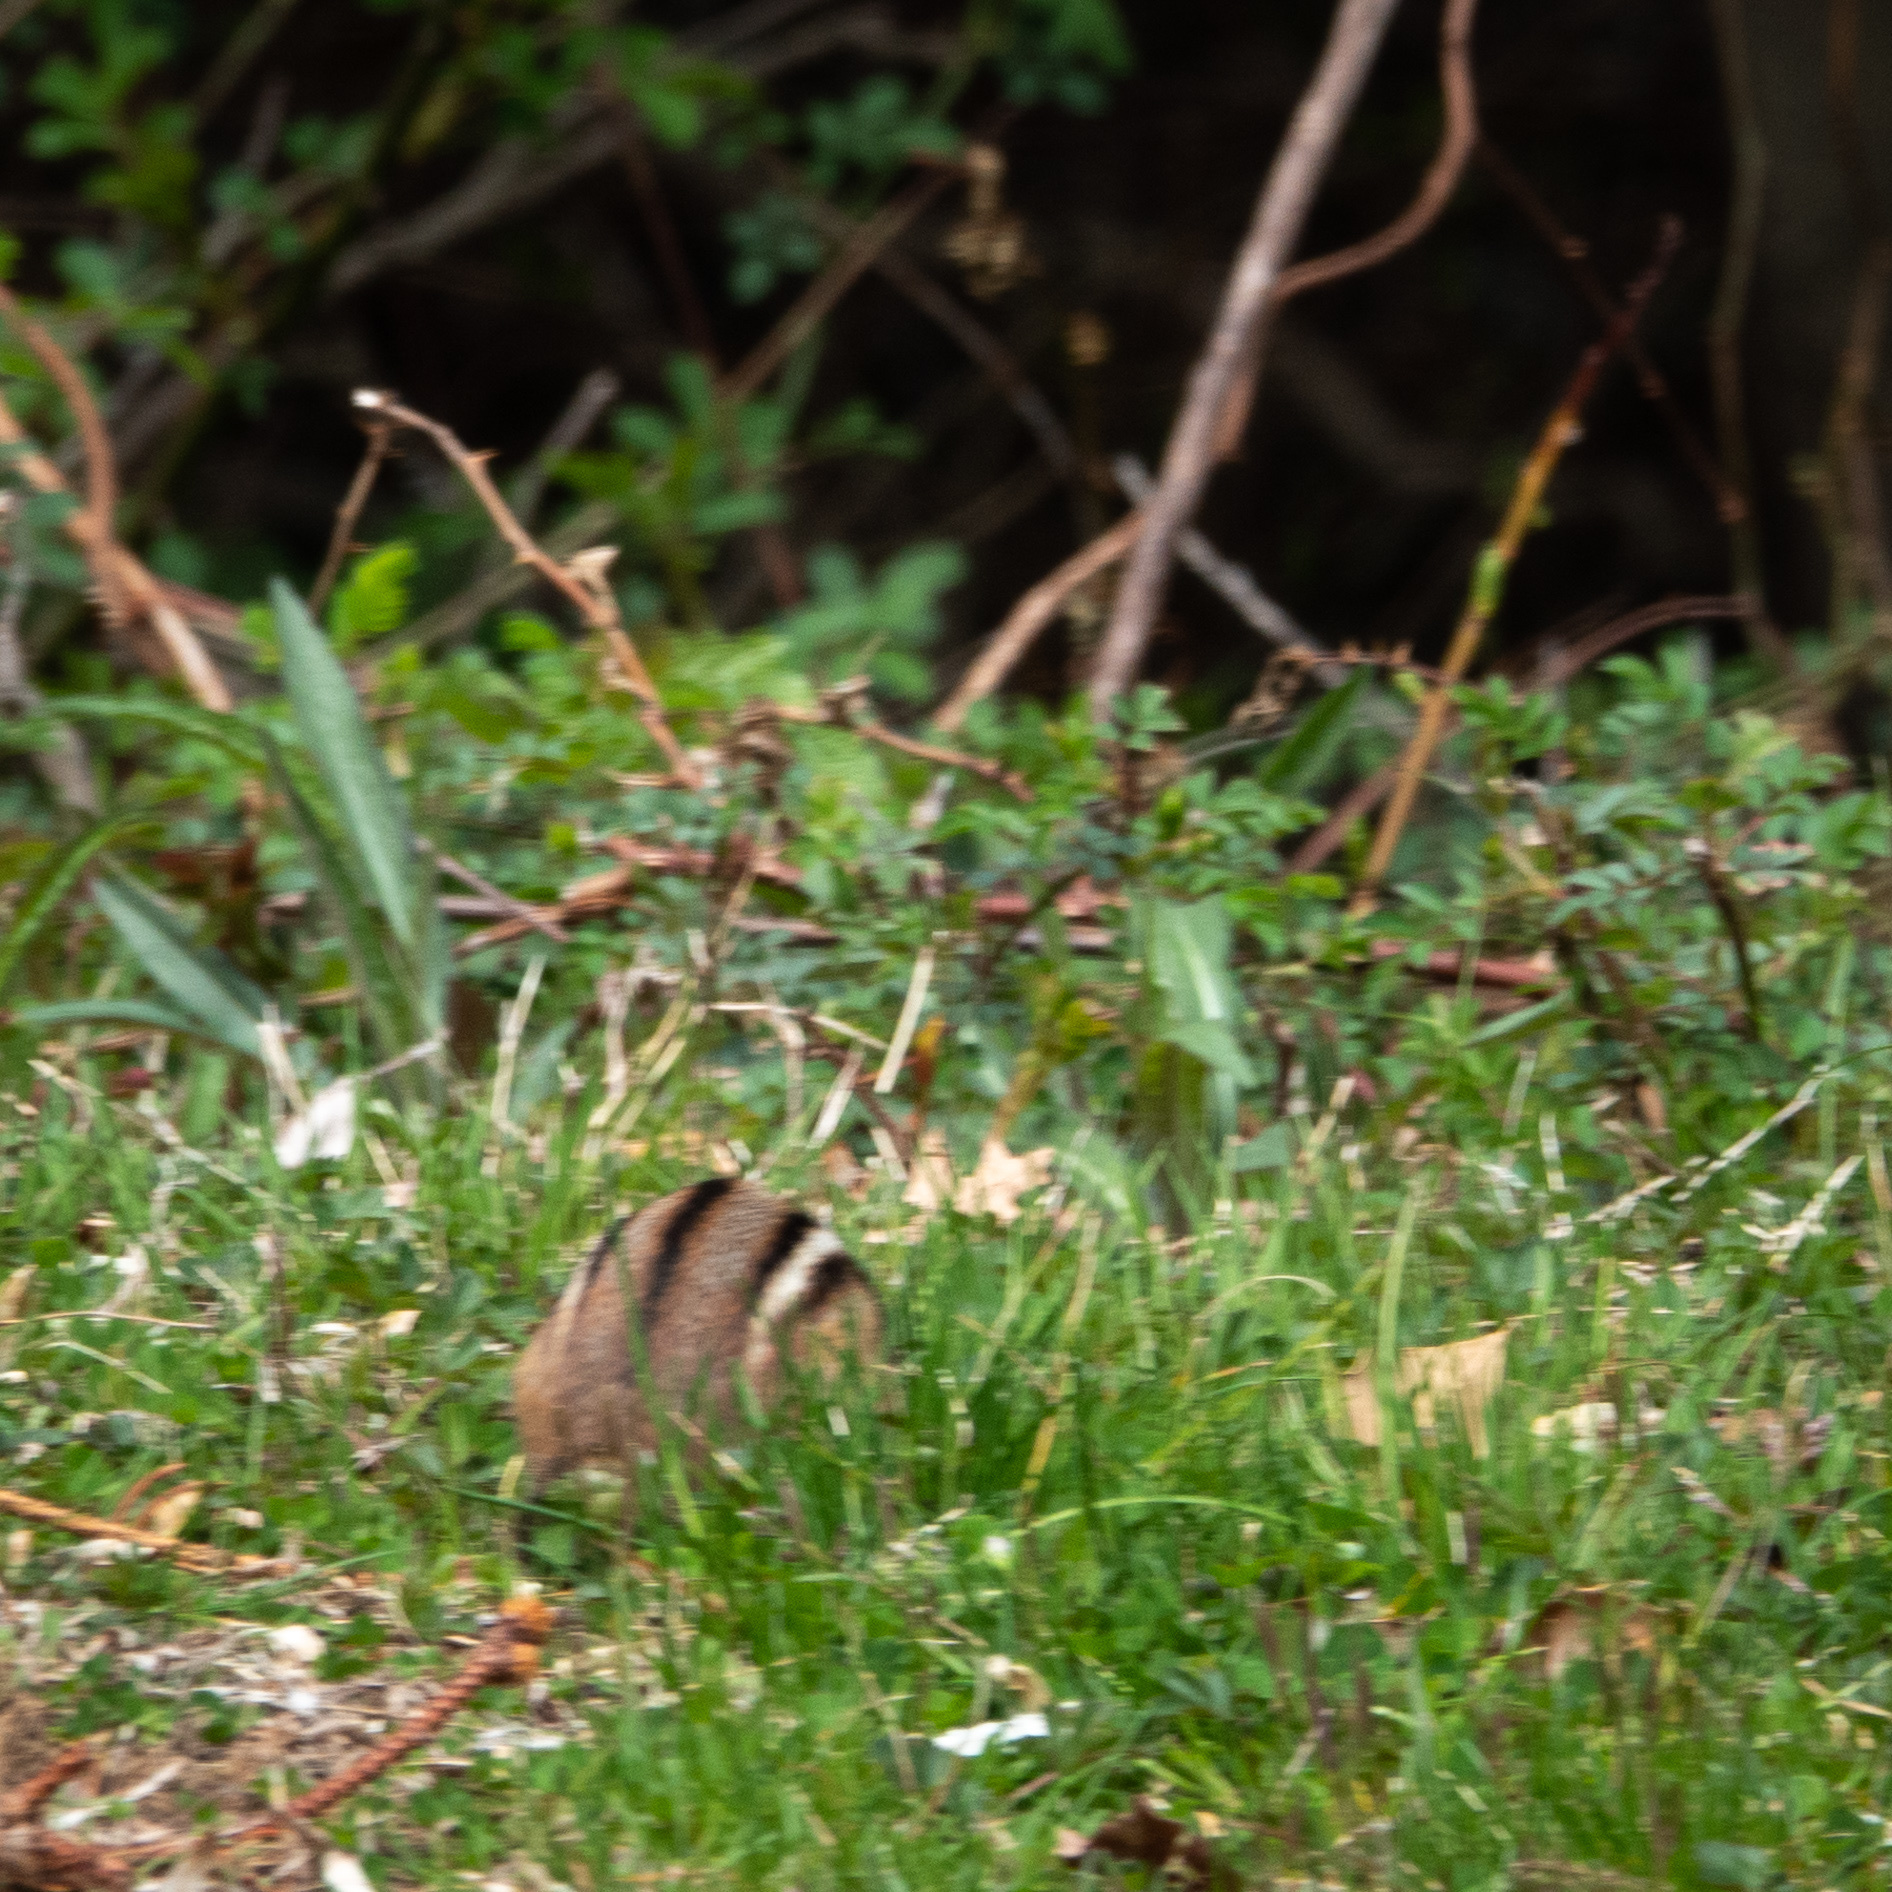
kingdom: Animalia
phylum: Chordata
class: Mammalia
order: Rodentia
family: Sciuridae
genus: Tamias
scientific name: Tamias striatus
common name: Eastern chipmunk
